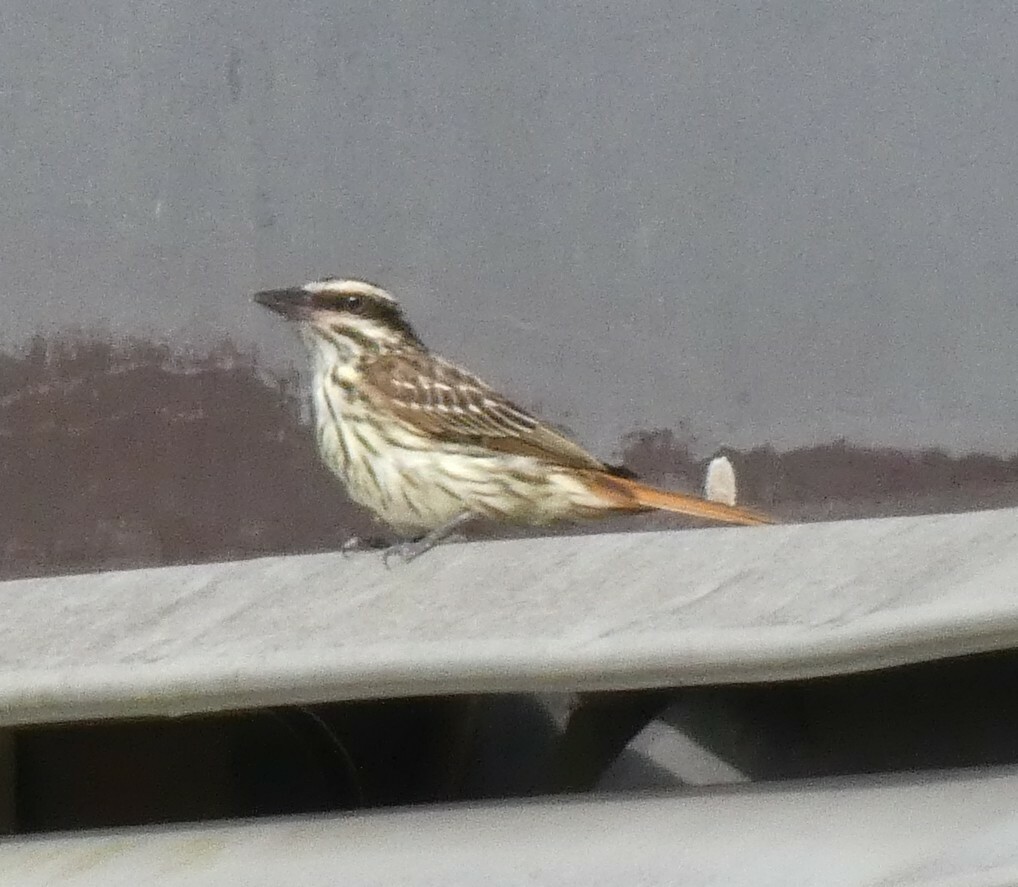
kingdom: Animalia
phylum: Chordata
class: Aves
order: Passeriformes
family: Tyrannidae
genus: Myiodynastes
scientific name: Myiodynastes maculatus
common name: Streaked flycatcher
